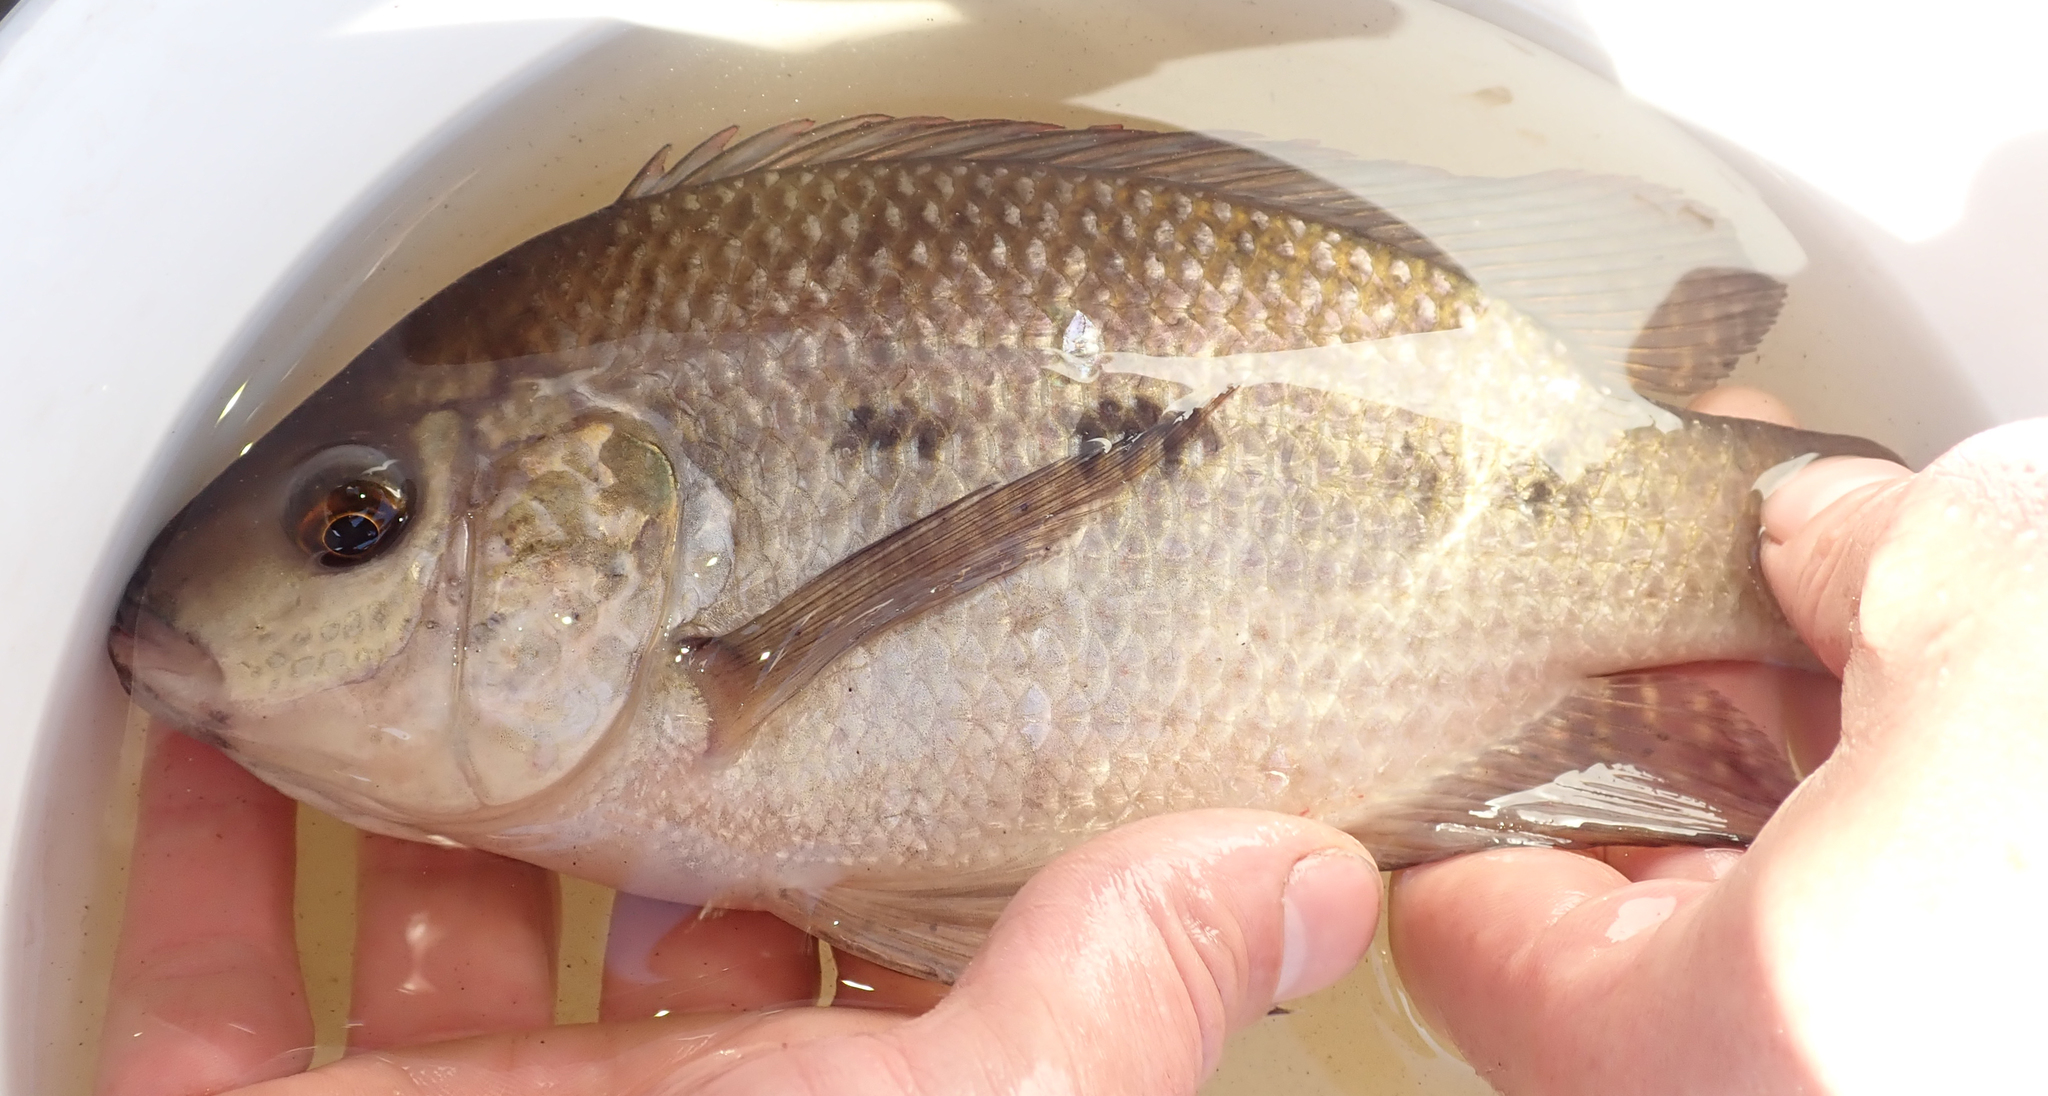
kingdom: Animalia
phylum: Chordata
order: Perciformes
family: Cichlidae
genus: Oreochromis
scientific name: Oreochromis andersonii
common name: Threespot tilapia
